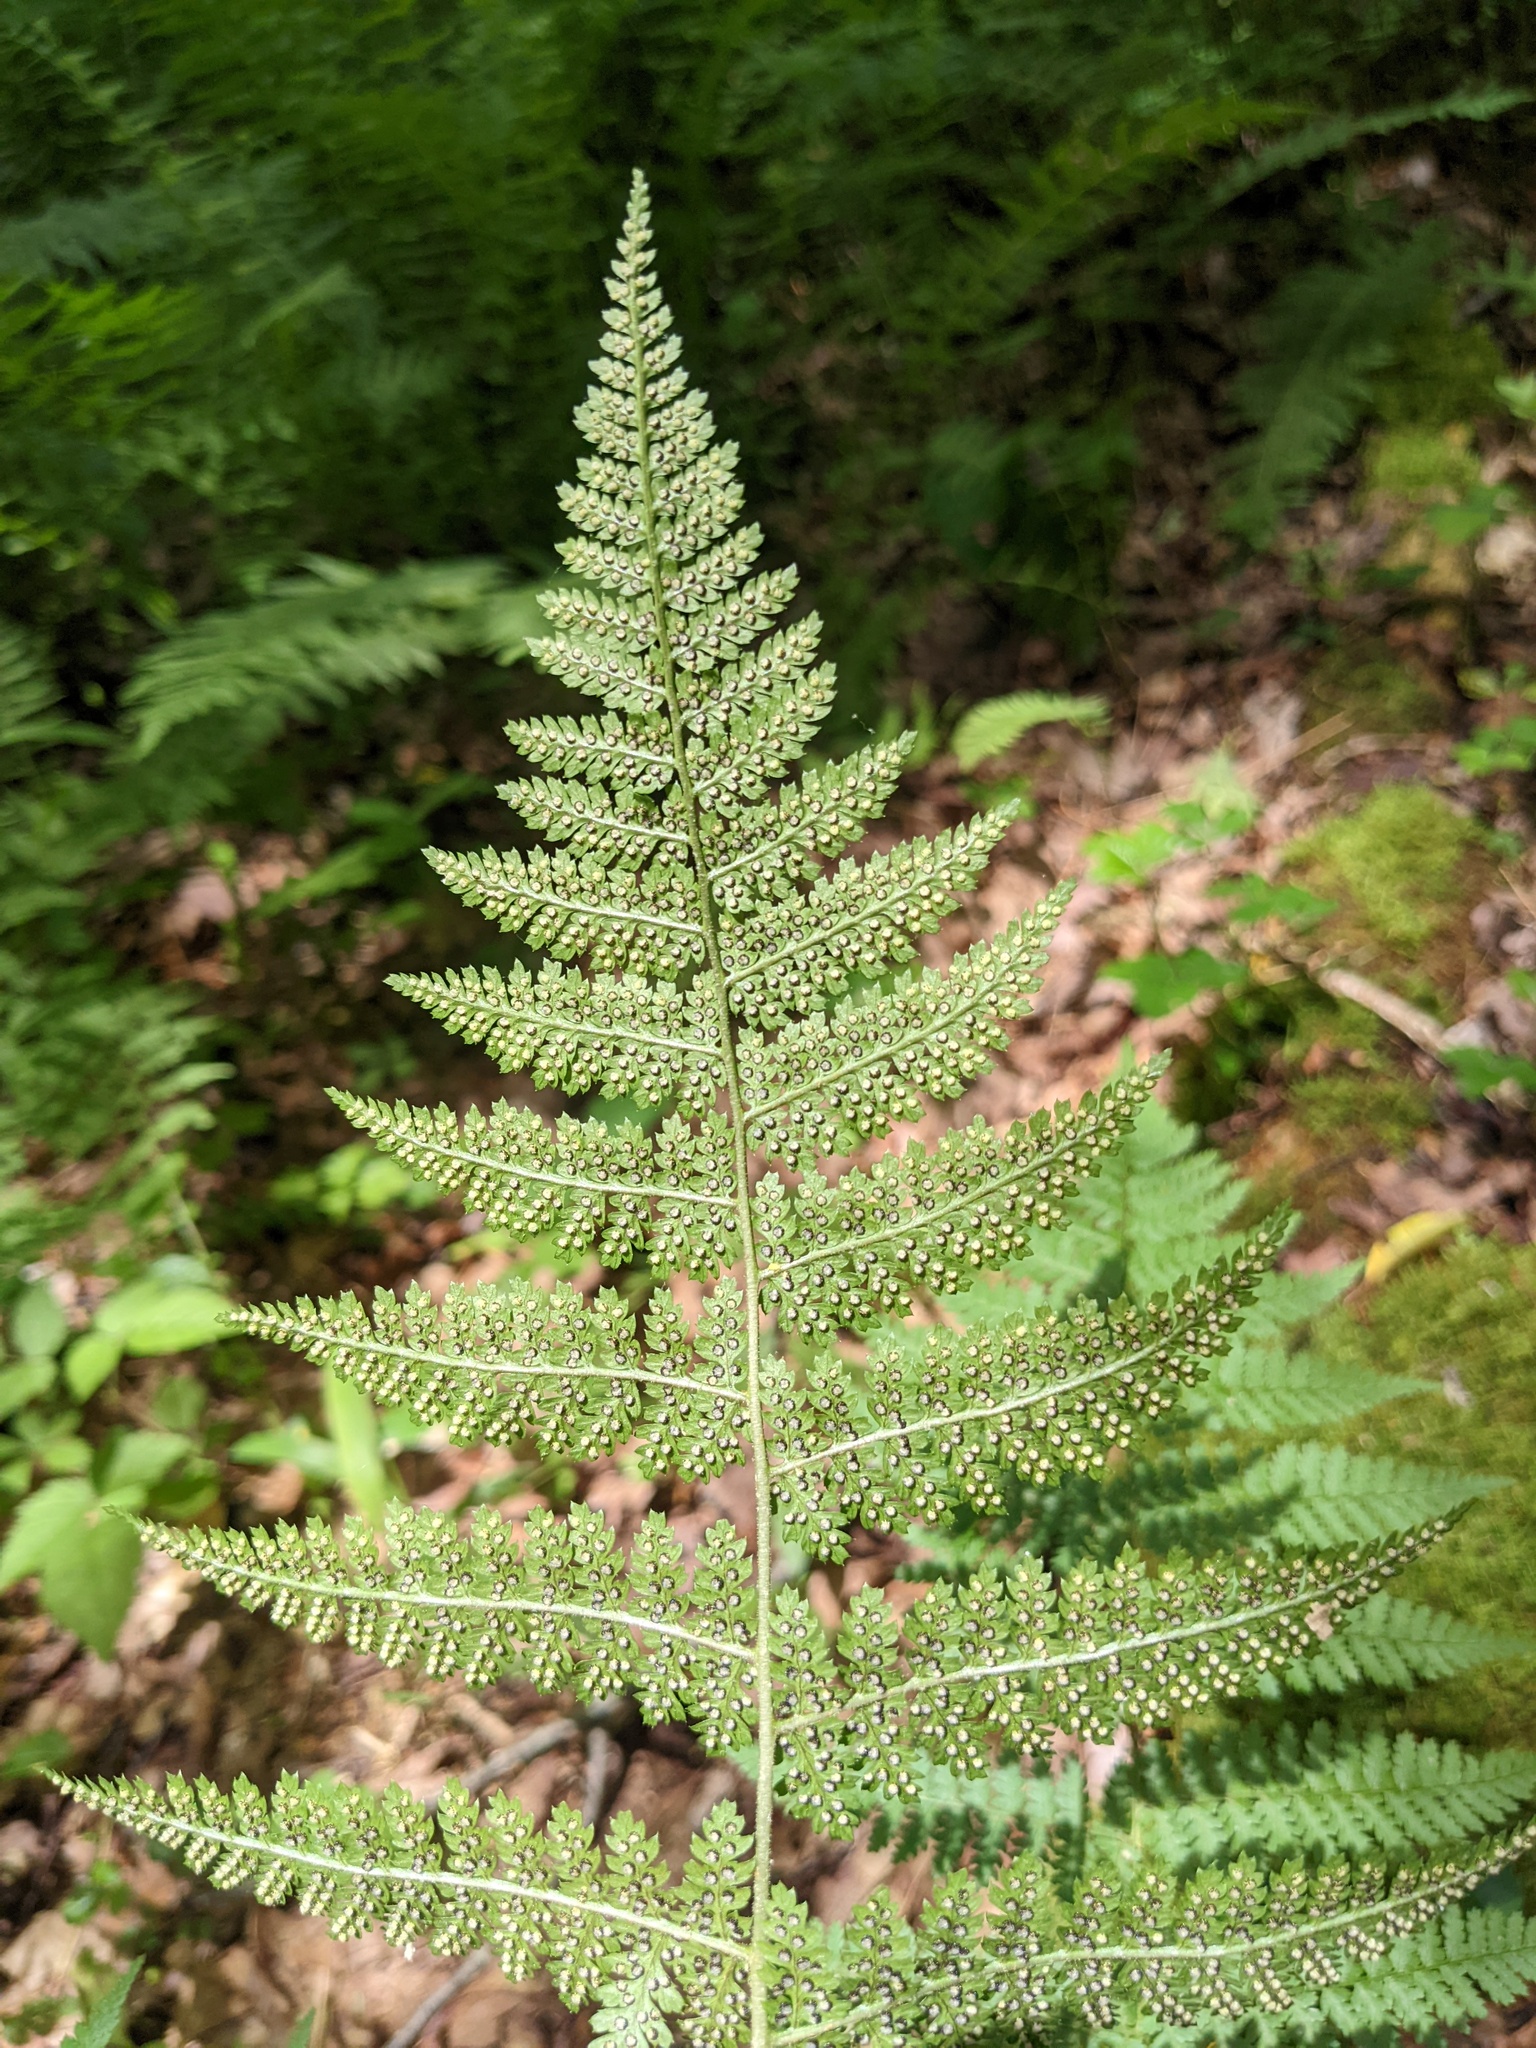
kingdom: Plantae
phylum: Tracheophyta
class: Polypodiopsida
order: Polypodiales
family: Dryopteridaceae
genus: Dryopteris
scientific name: Dryopteris intermedia
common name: Evergreen wood fern
